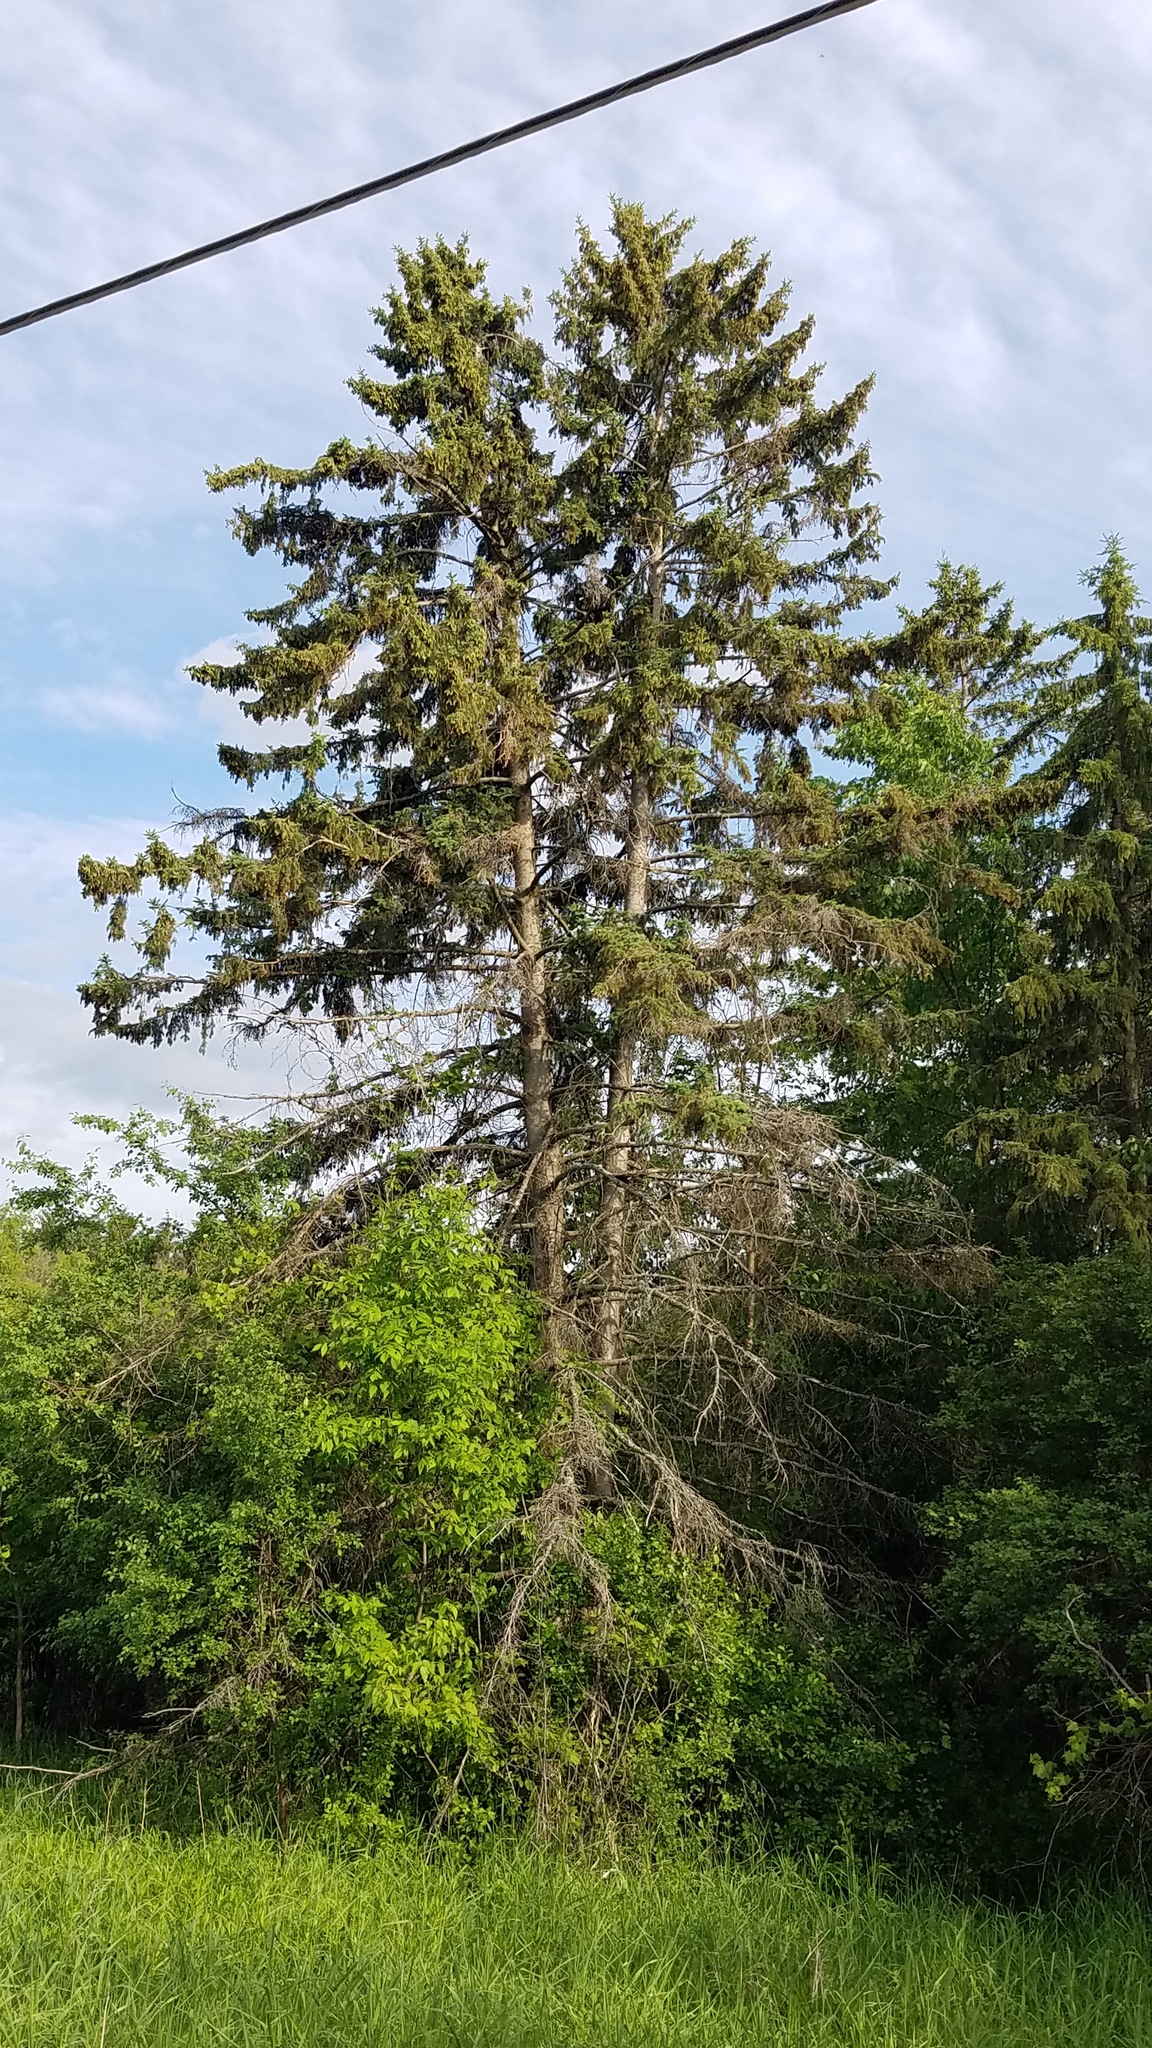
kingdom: Plantae
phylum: Tracheophyta
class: Pinopsida
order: Pinales
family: Pinaceae
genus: Picea
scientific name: Picea glauca
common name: White spruce
